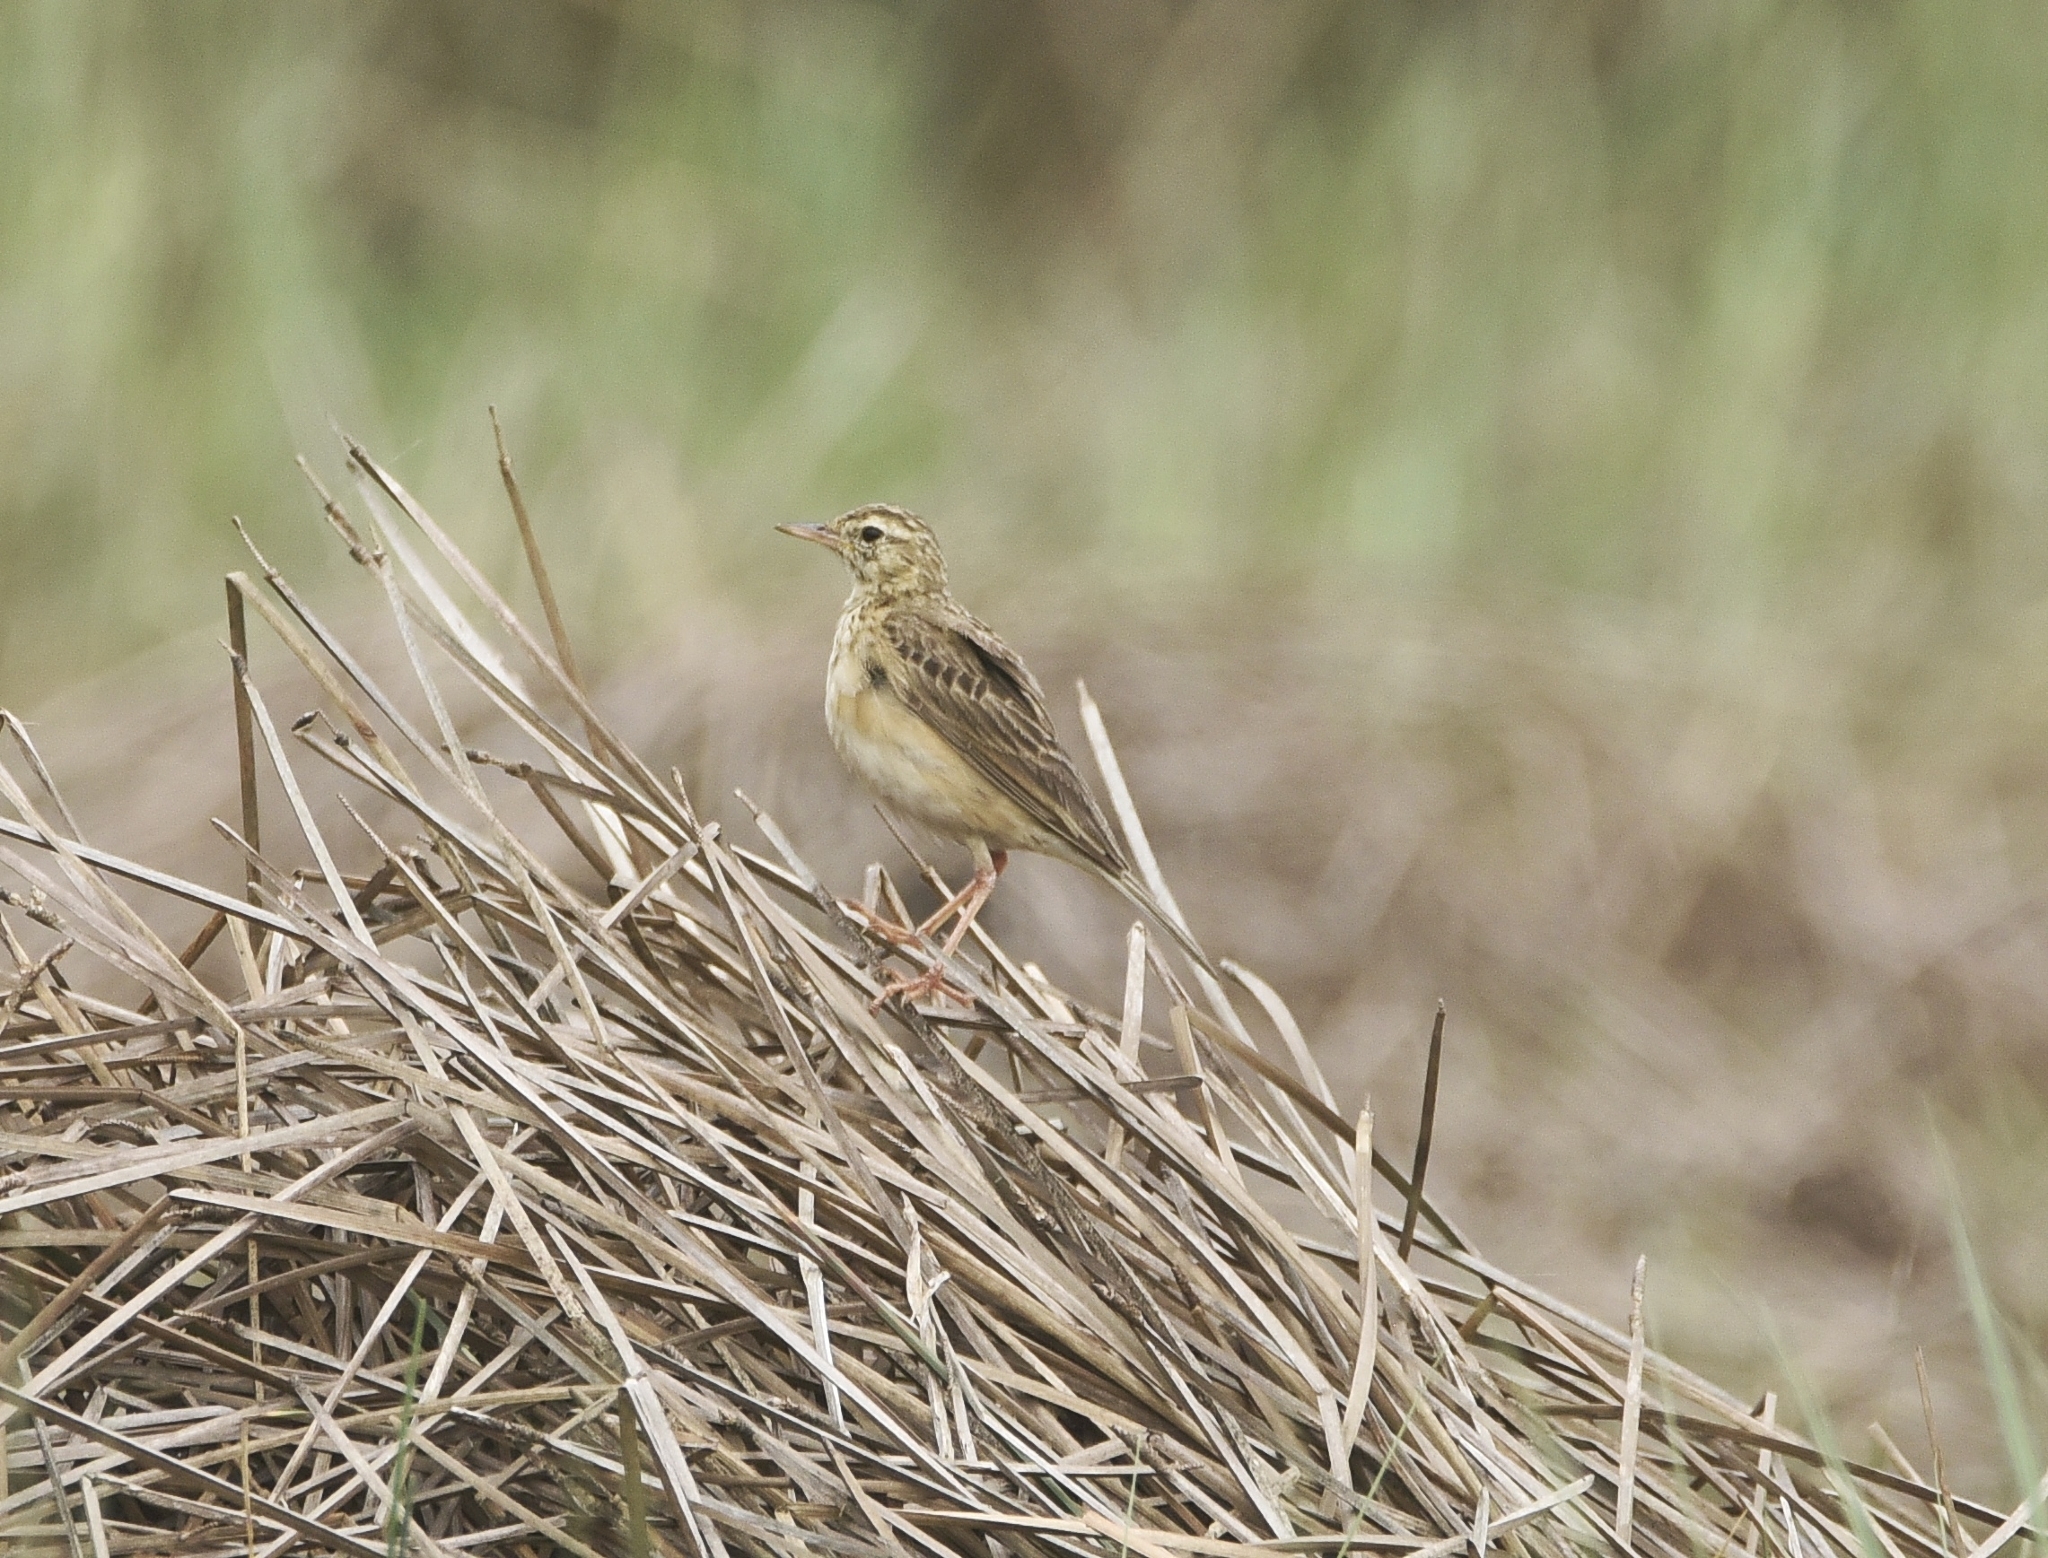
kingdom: Animalia
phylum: Chordata
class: Aves
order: Passeriformes
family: Motacillidae
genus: Anthus
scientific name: Anthus rufulus
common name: Paddyfield pipit
